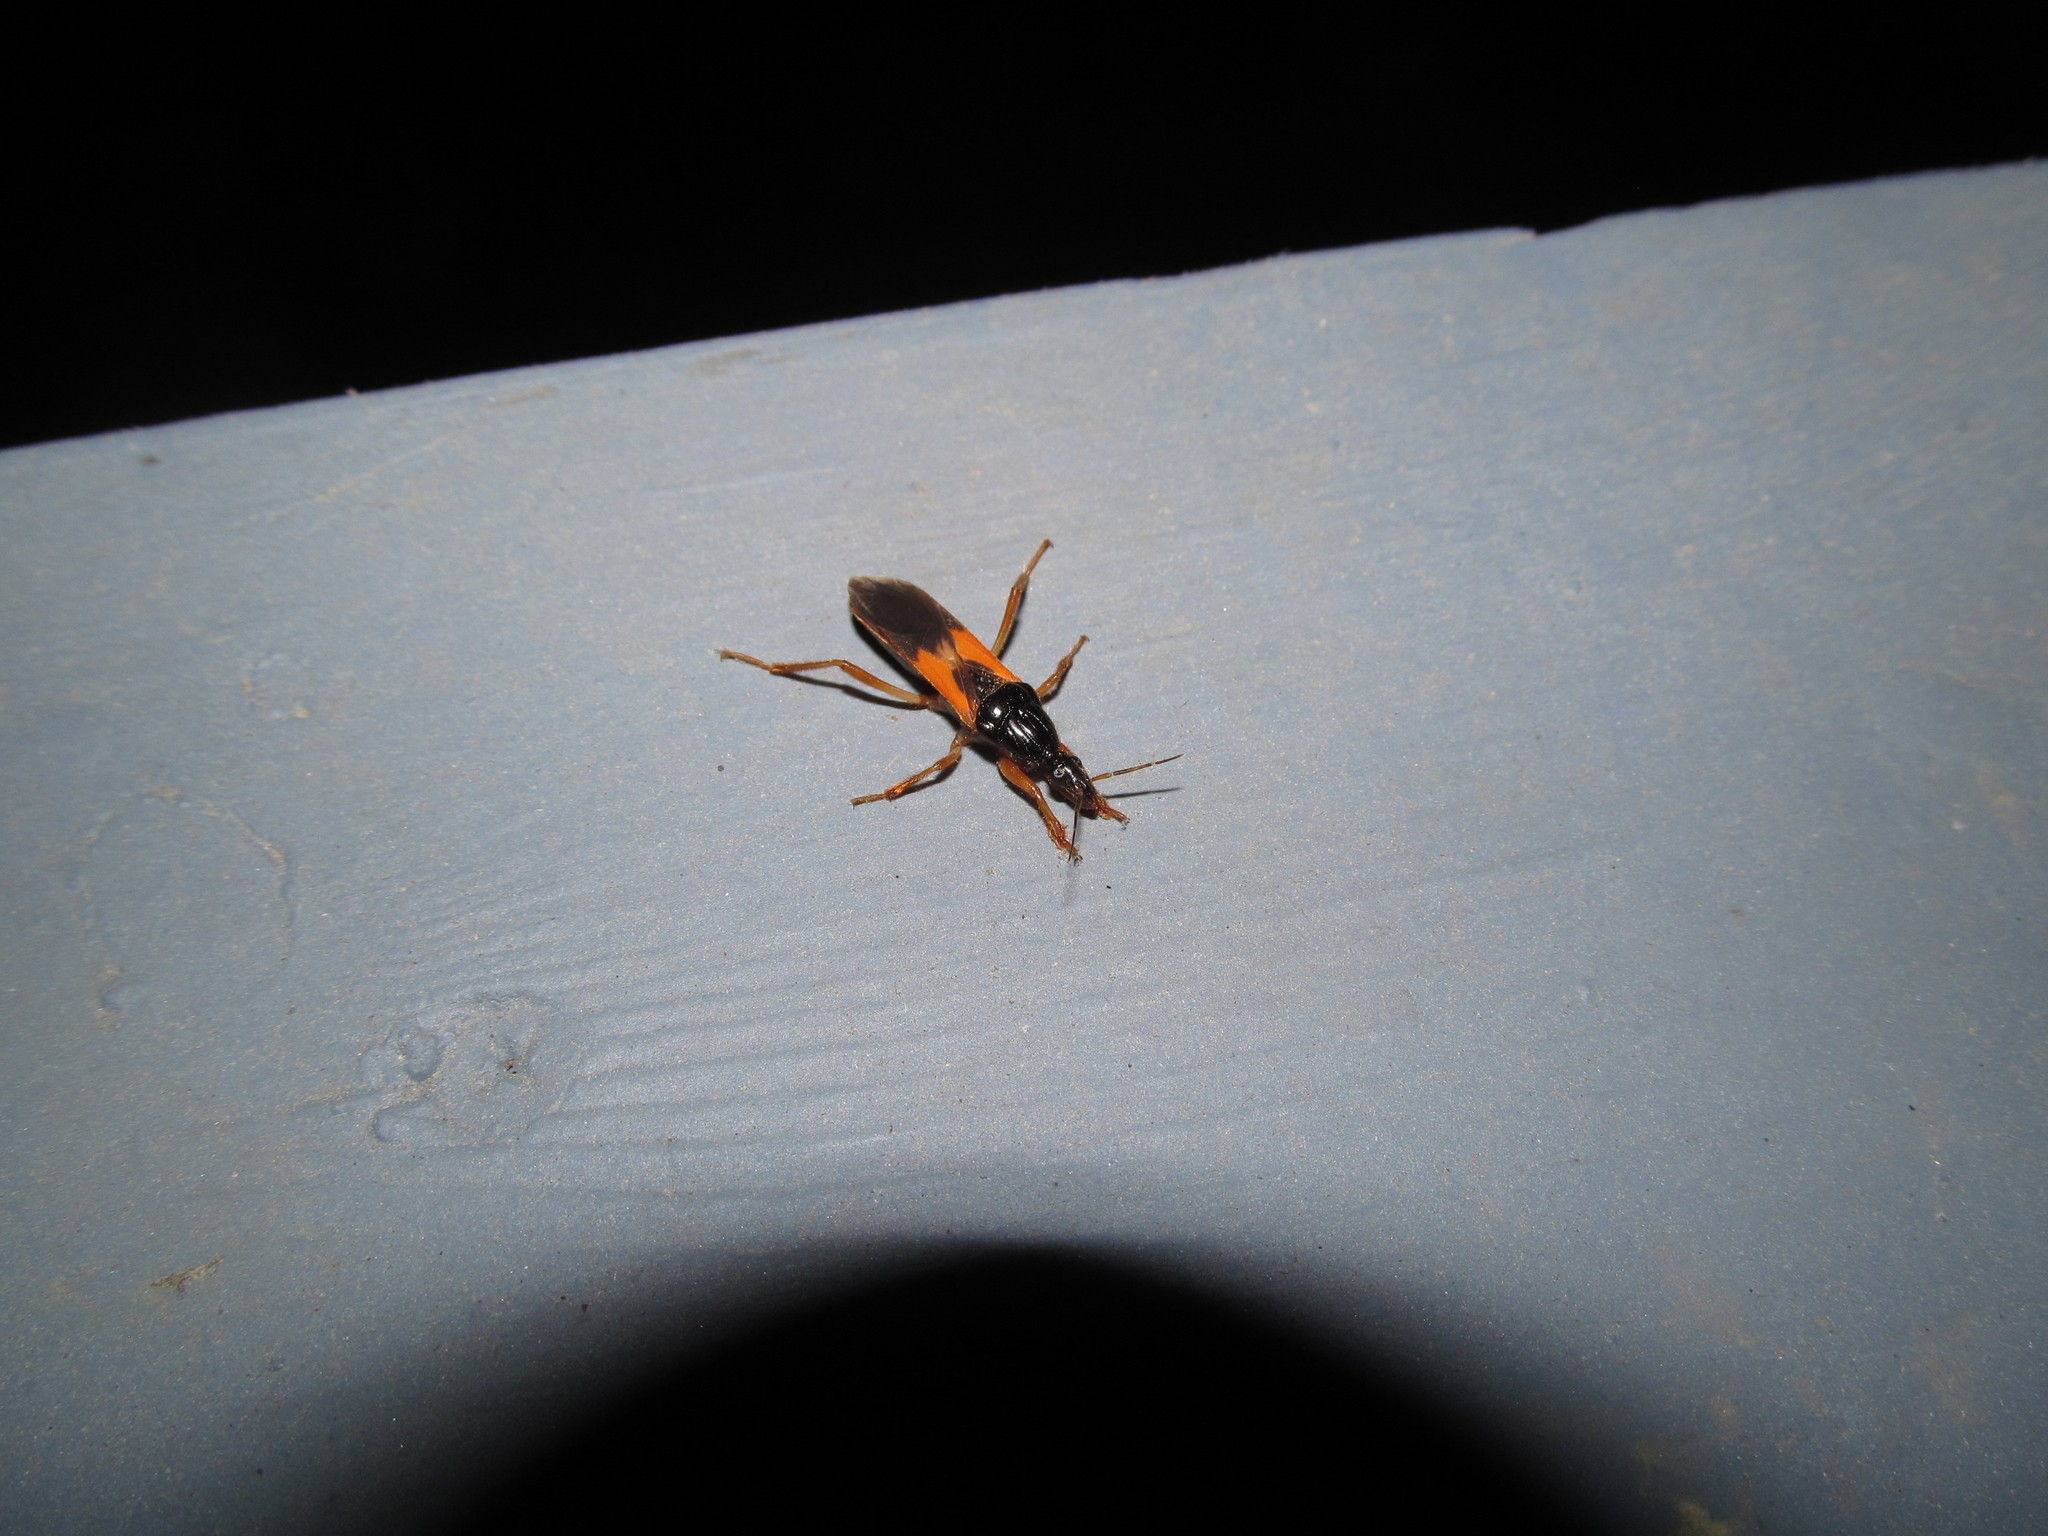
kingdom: Animalia
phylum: Arthropoda
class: Insecta
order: Hemiptera
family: Reduviidae
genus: Sirthenea
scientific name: Sirthenea stria
